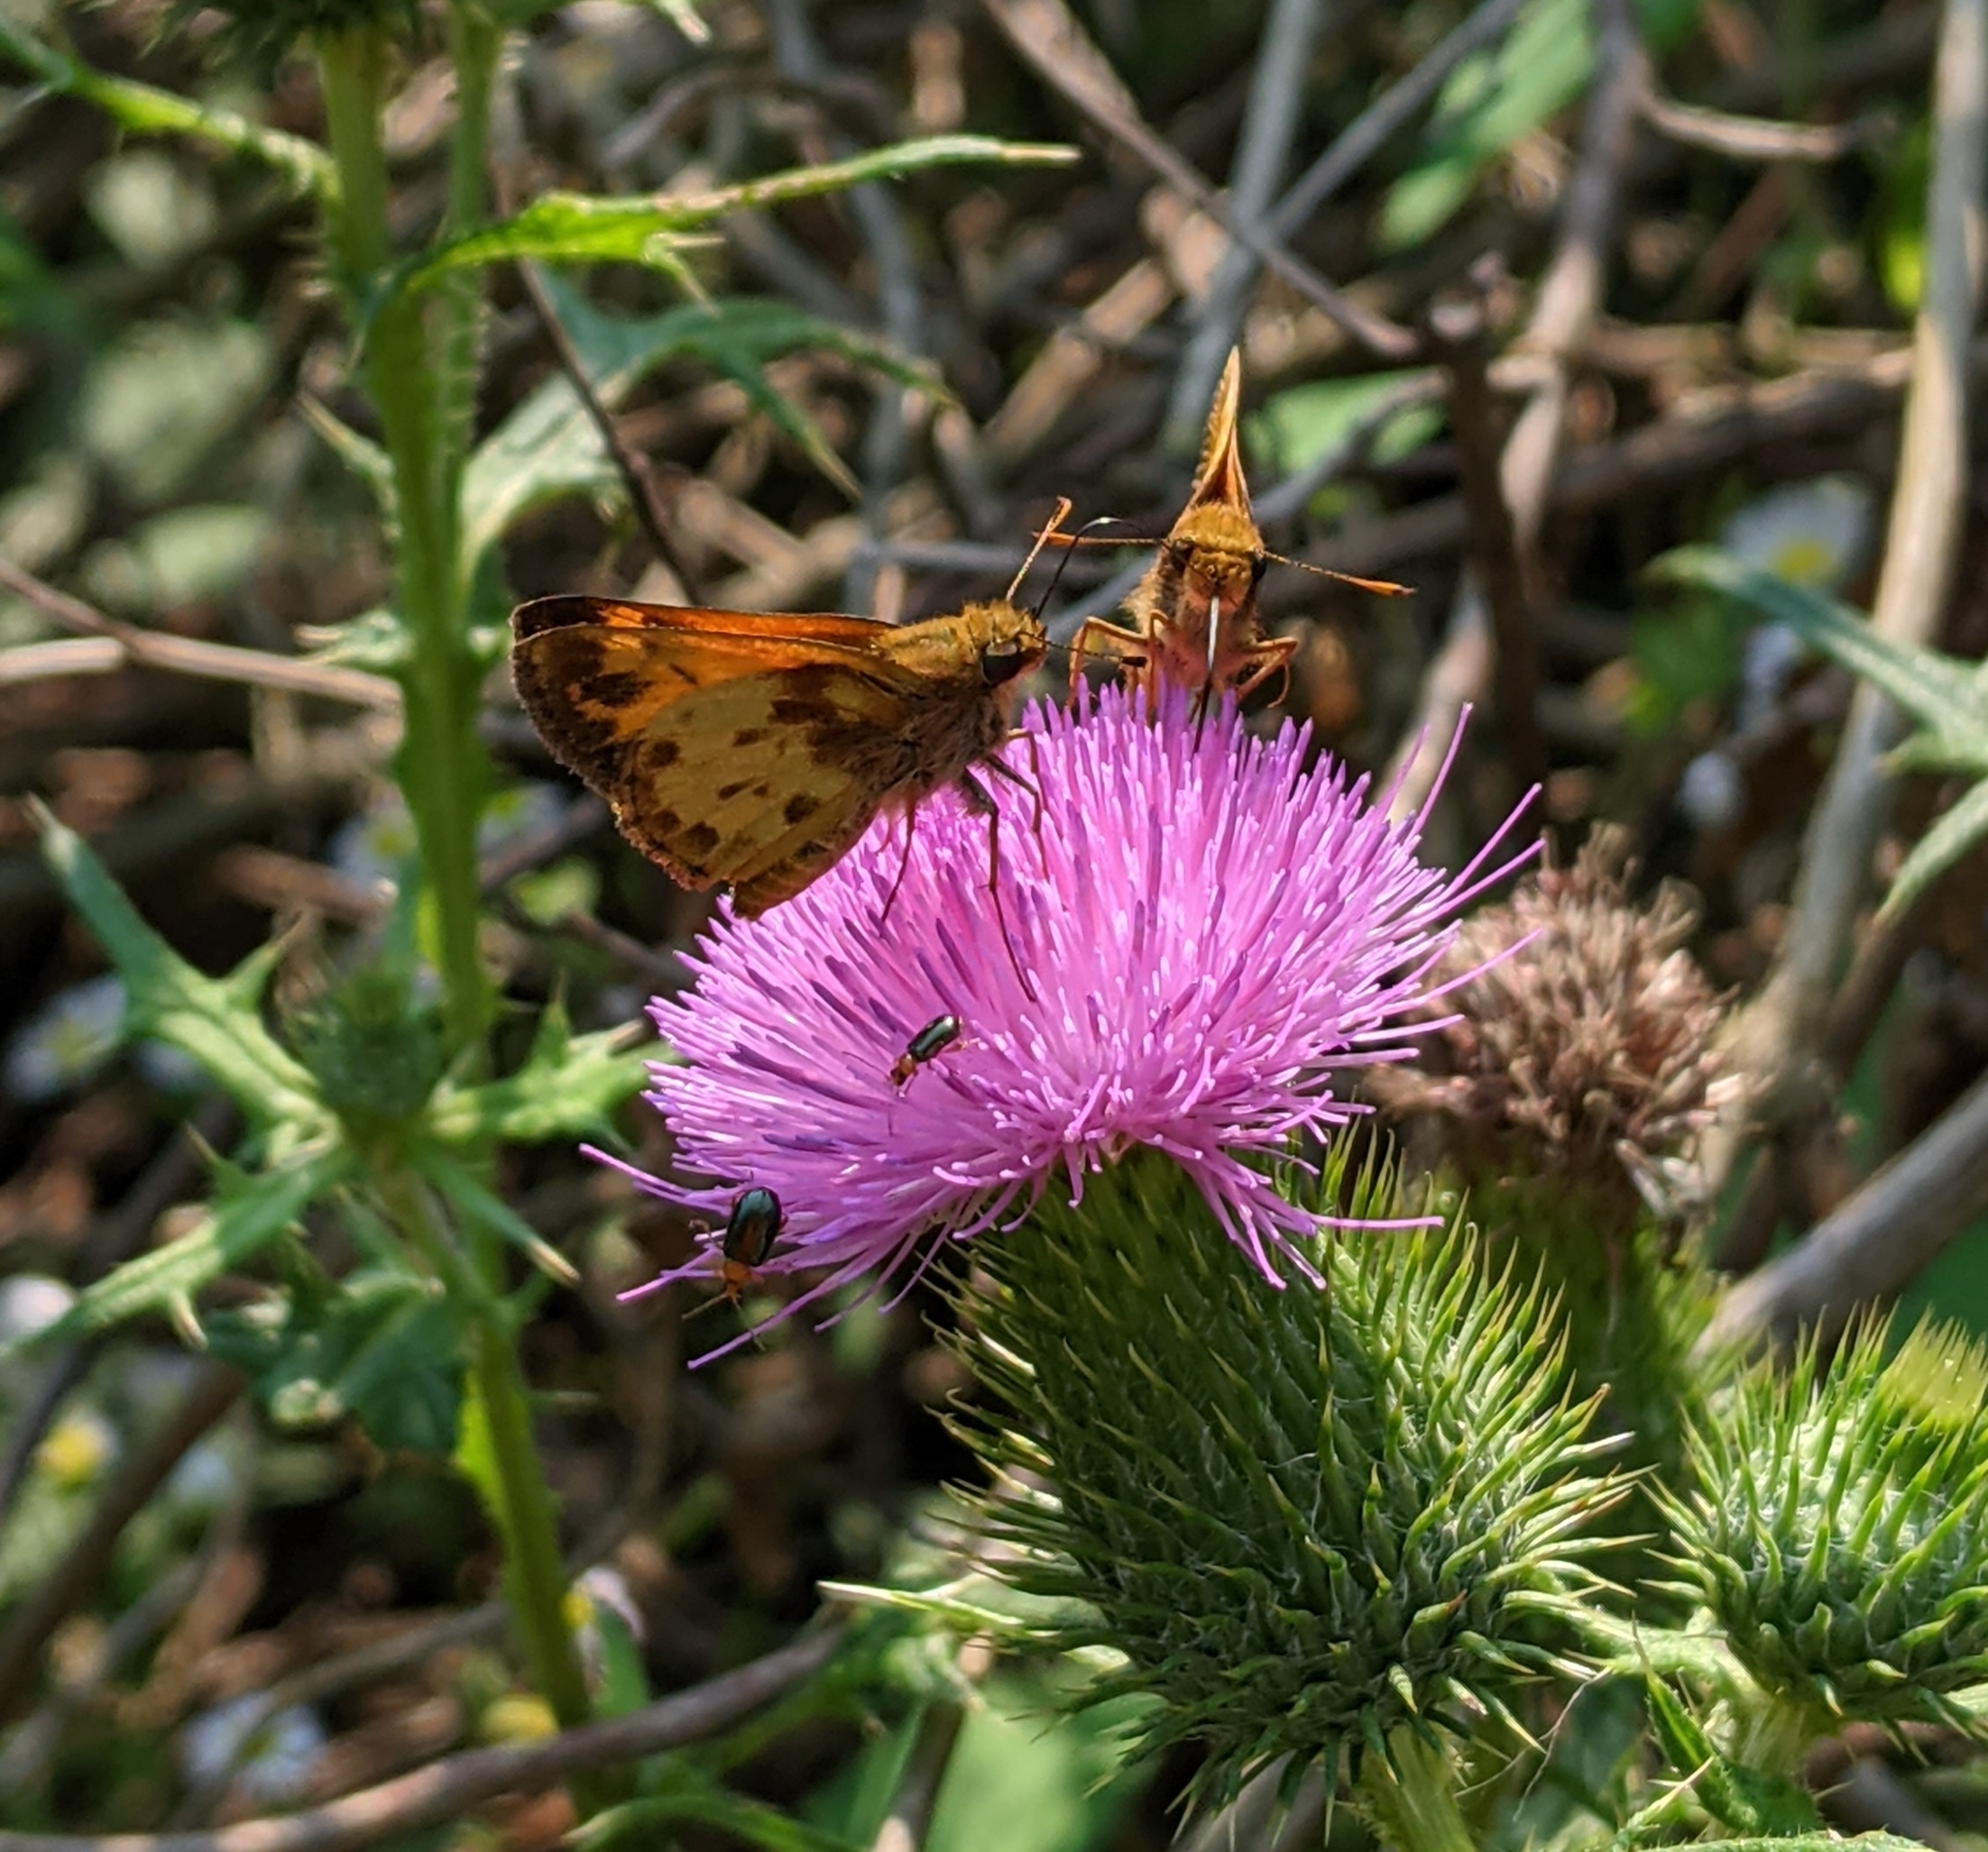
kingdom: Animalia
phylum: Arthropoda
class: Insecta
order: Lepidoptera
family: Hesperiidae
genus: Lon
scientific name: Lon zabulon
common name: Zabulon skipper
